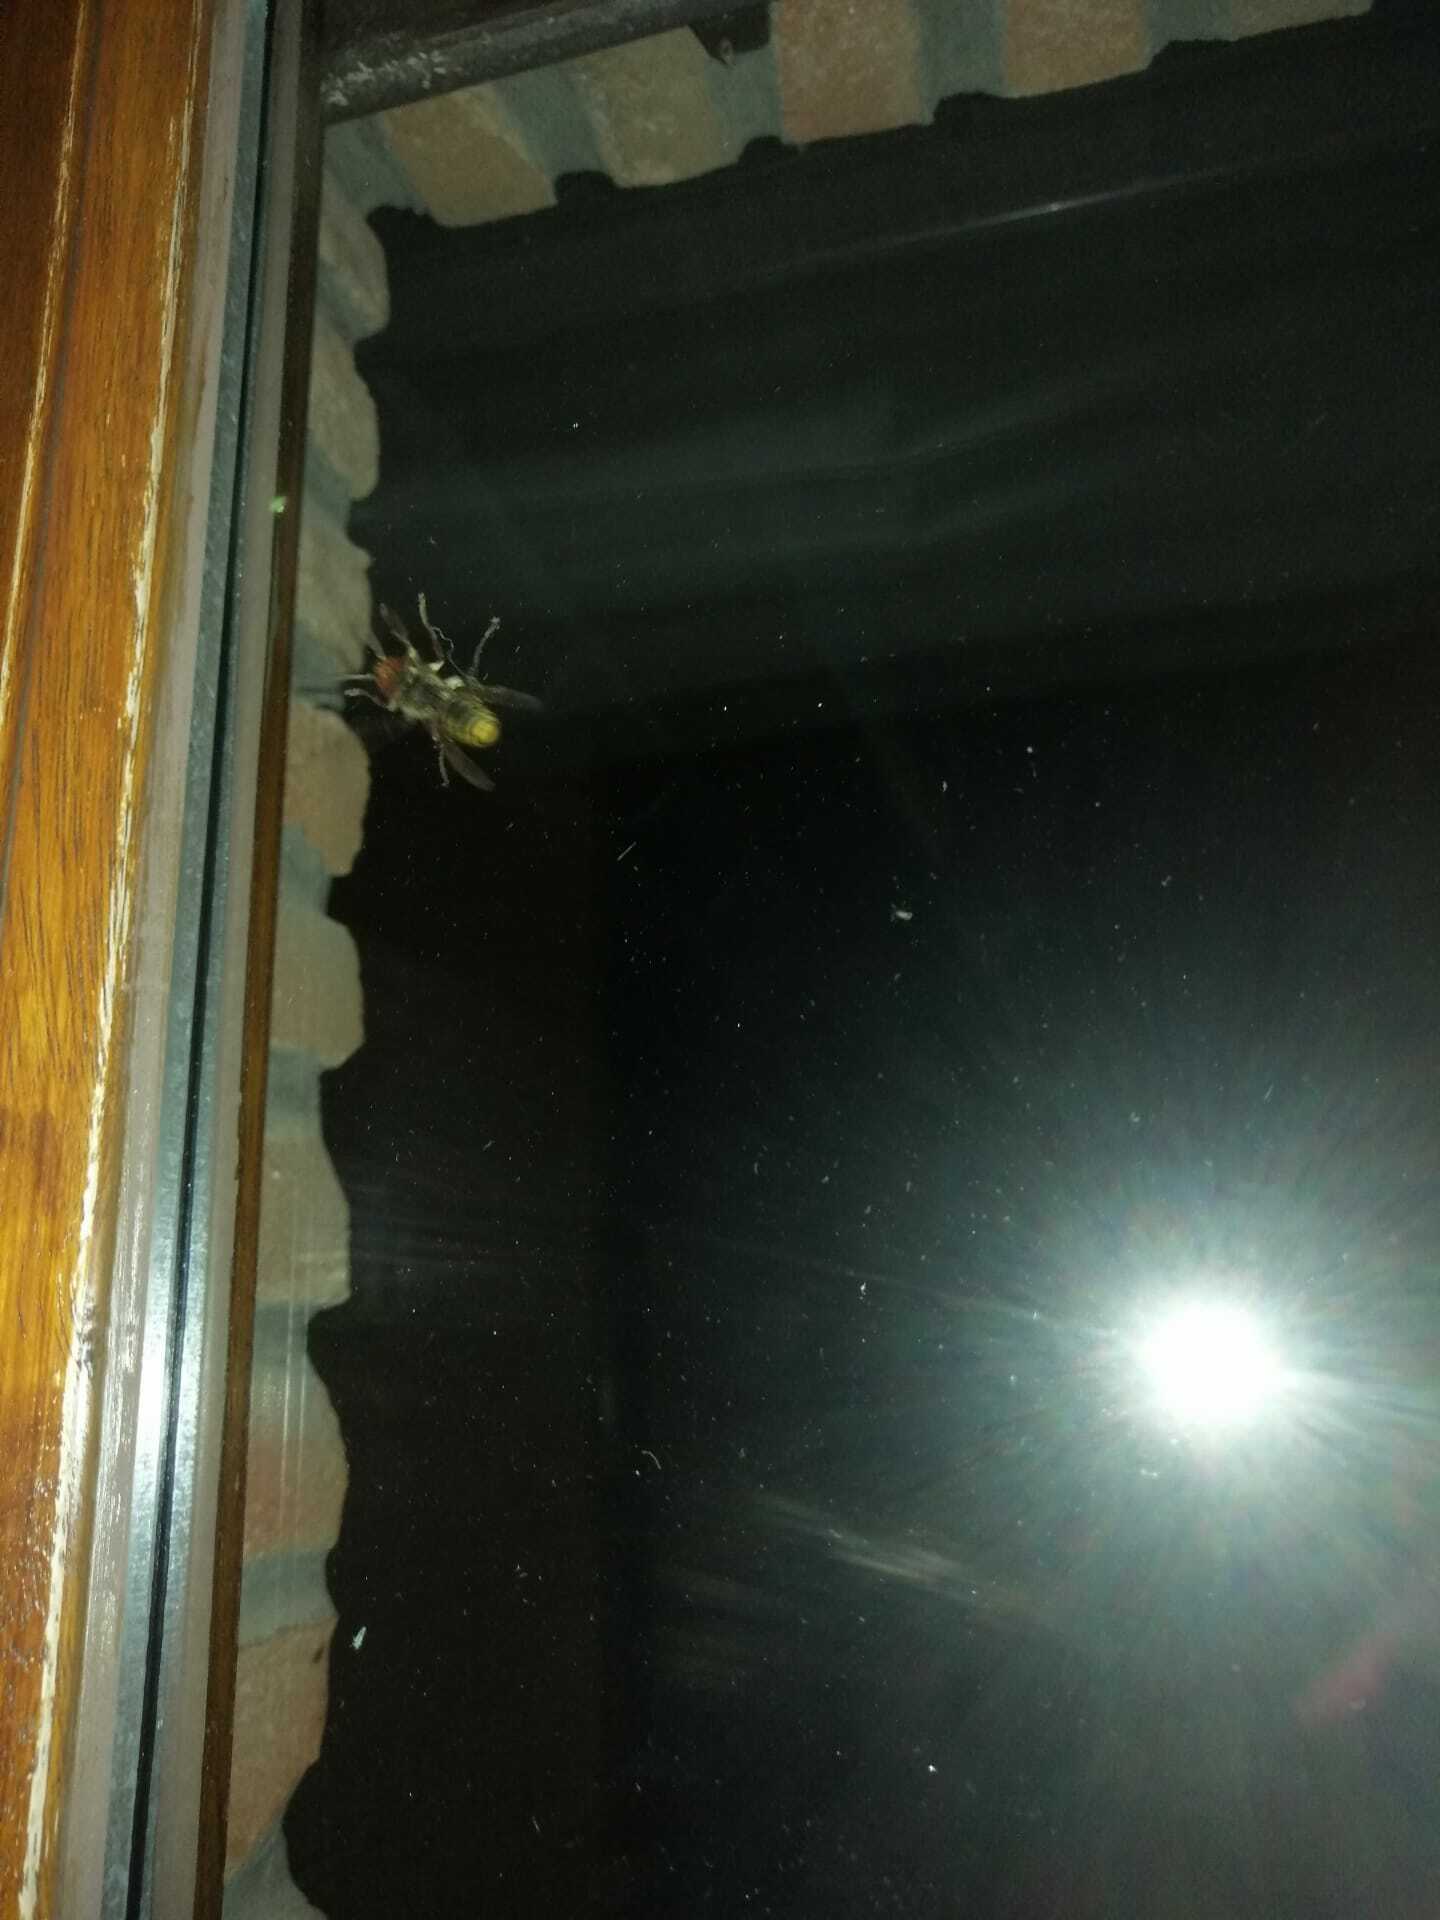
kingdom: Animalia
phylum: Arthropoda
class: Insecta
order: Hymenoptera
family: Vespidae
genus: Vespa
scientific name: Vespa crabro
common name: Hornet
